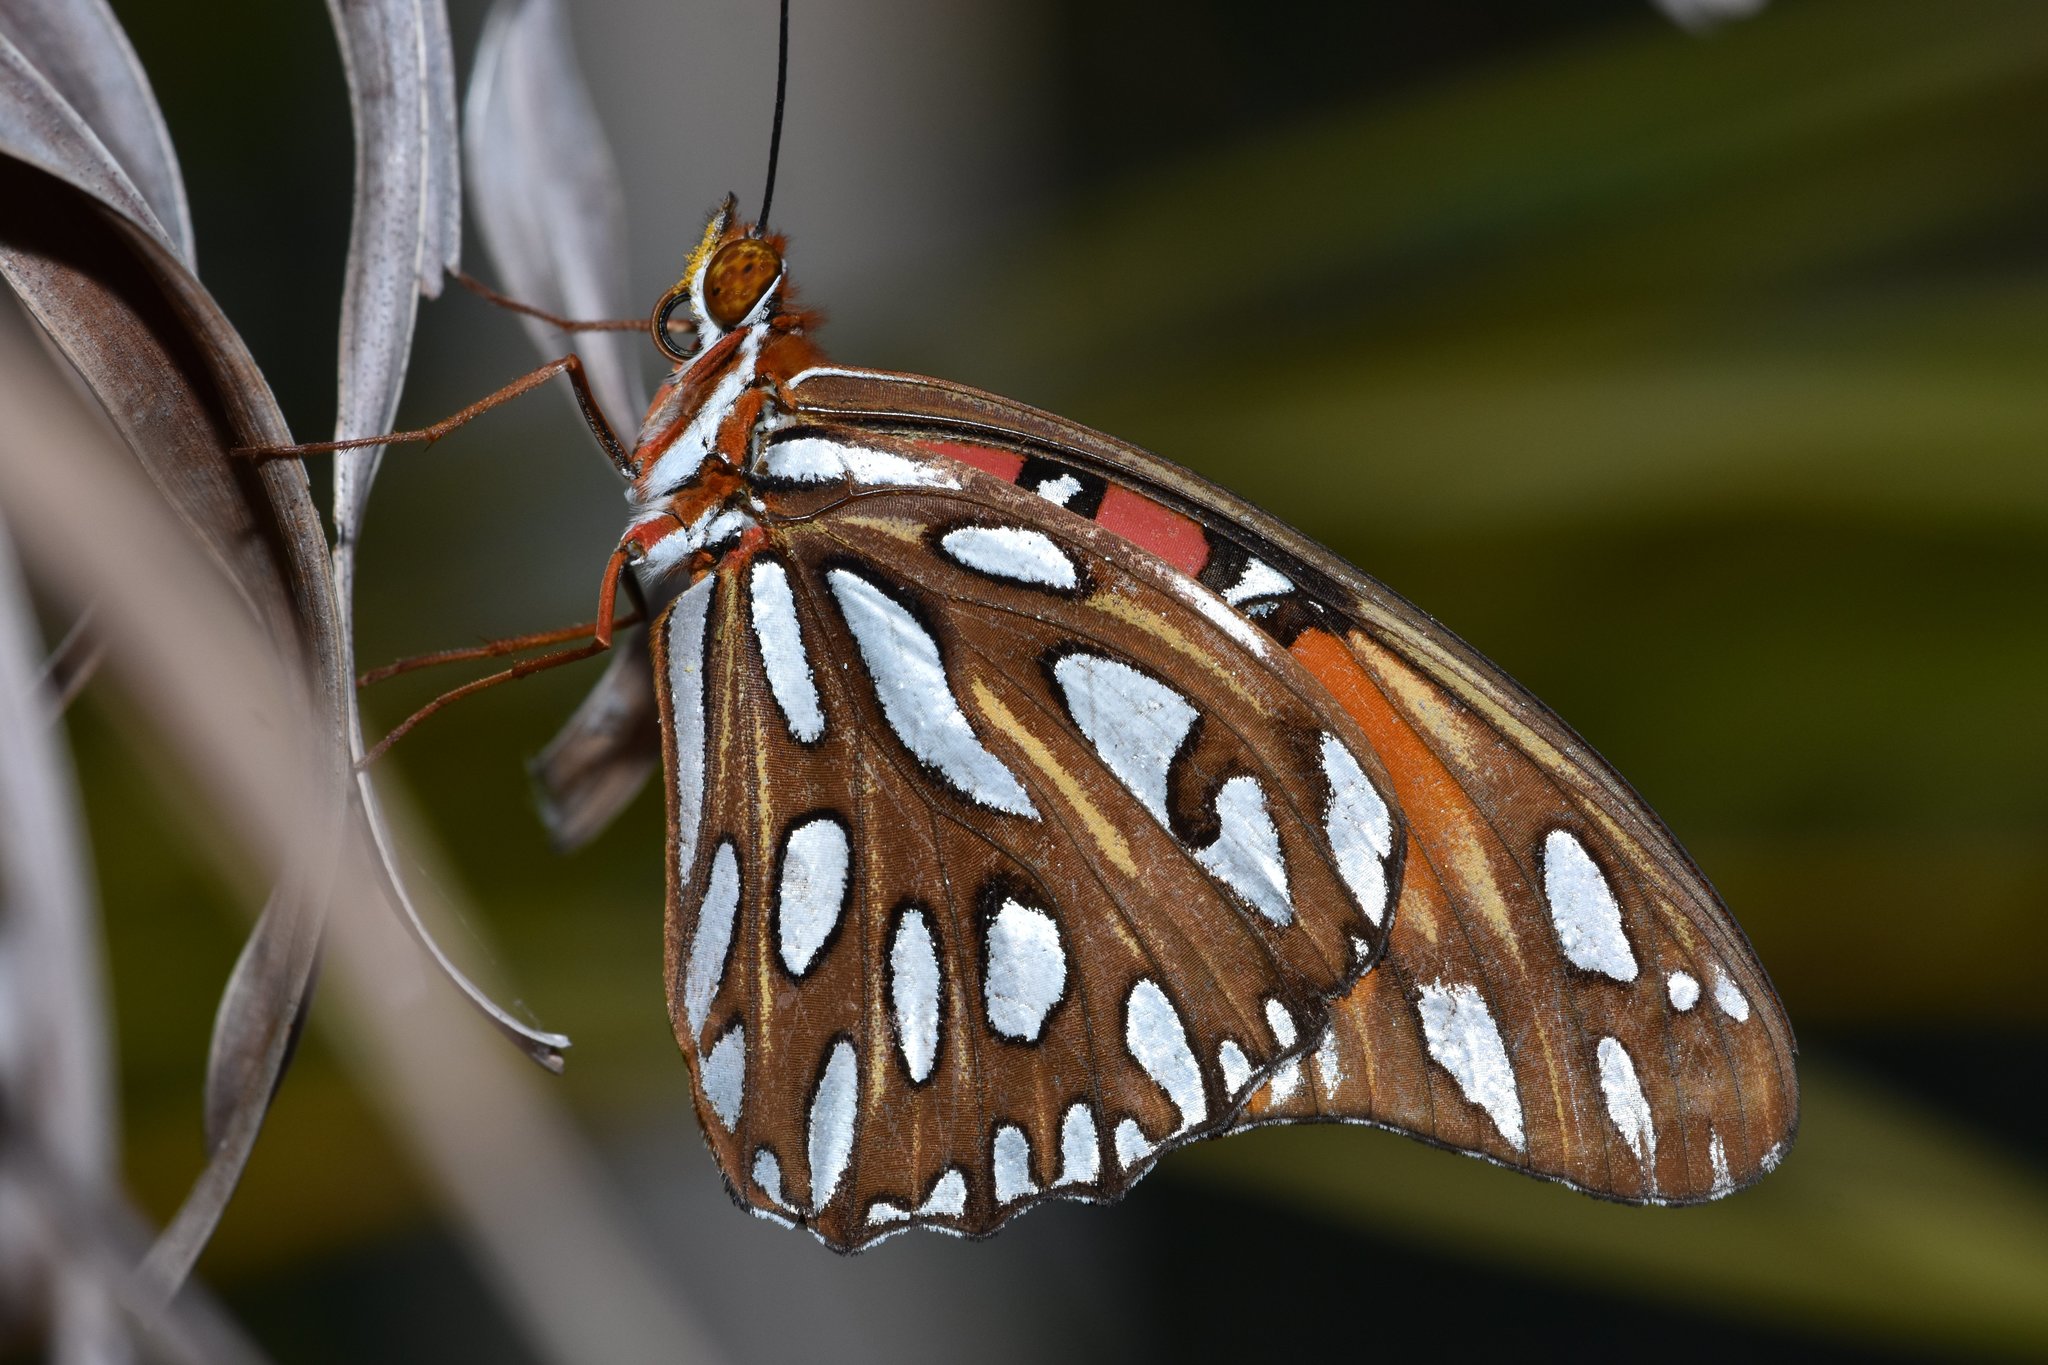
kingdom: Animalia
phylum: Arthropoda
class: Insecta
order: Lepidoptera
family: Nymphalidae
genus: Dione
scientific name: Dione vanillae
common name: Gulf fritillary
